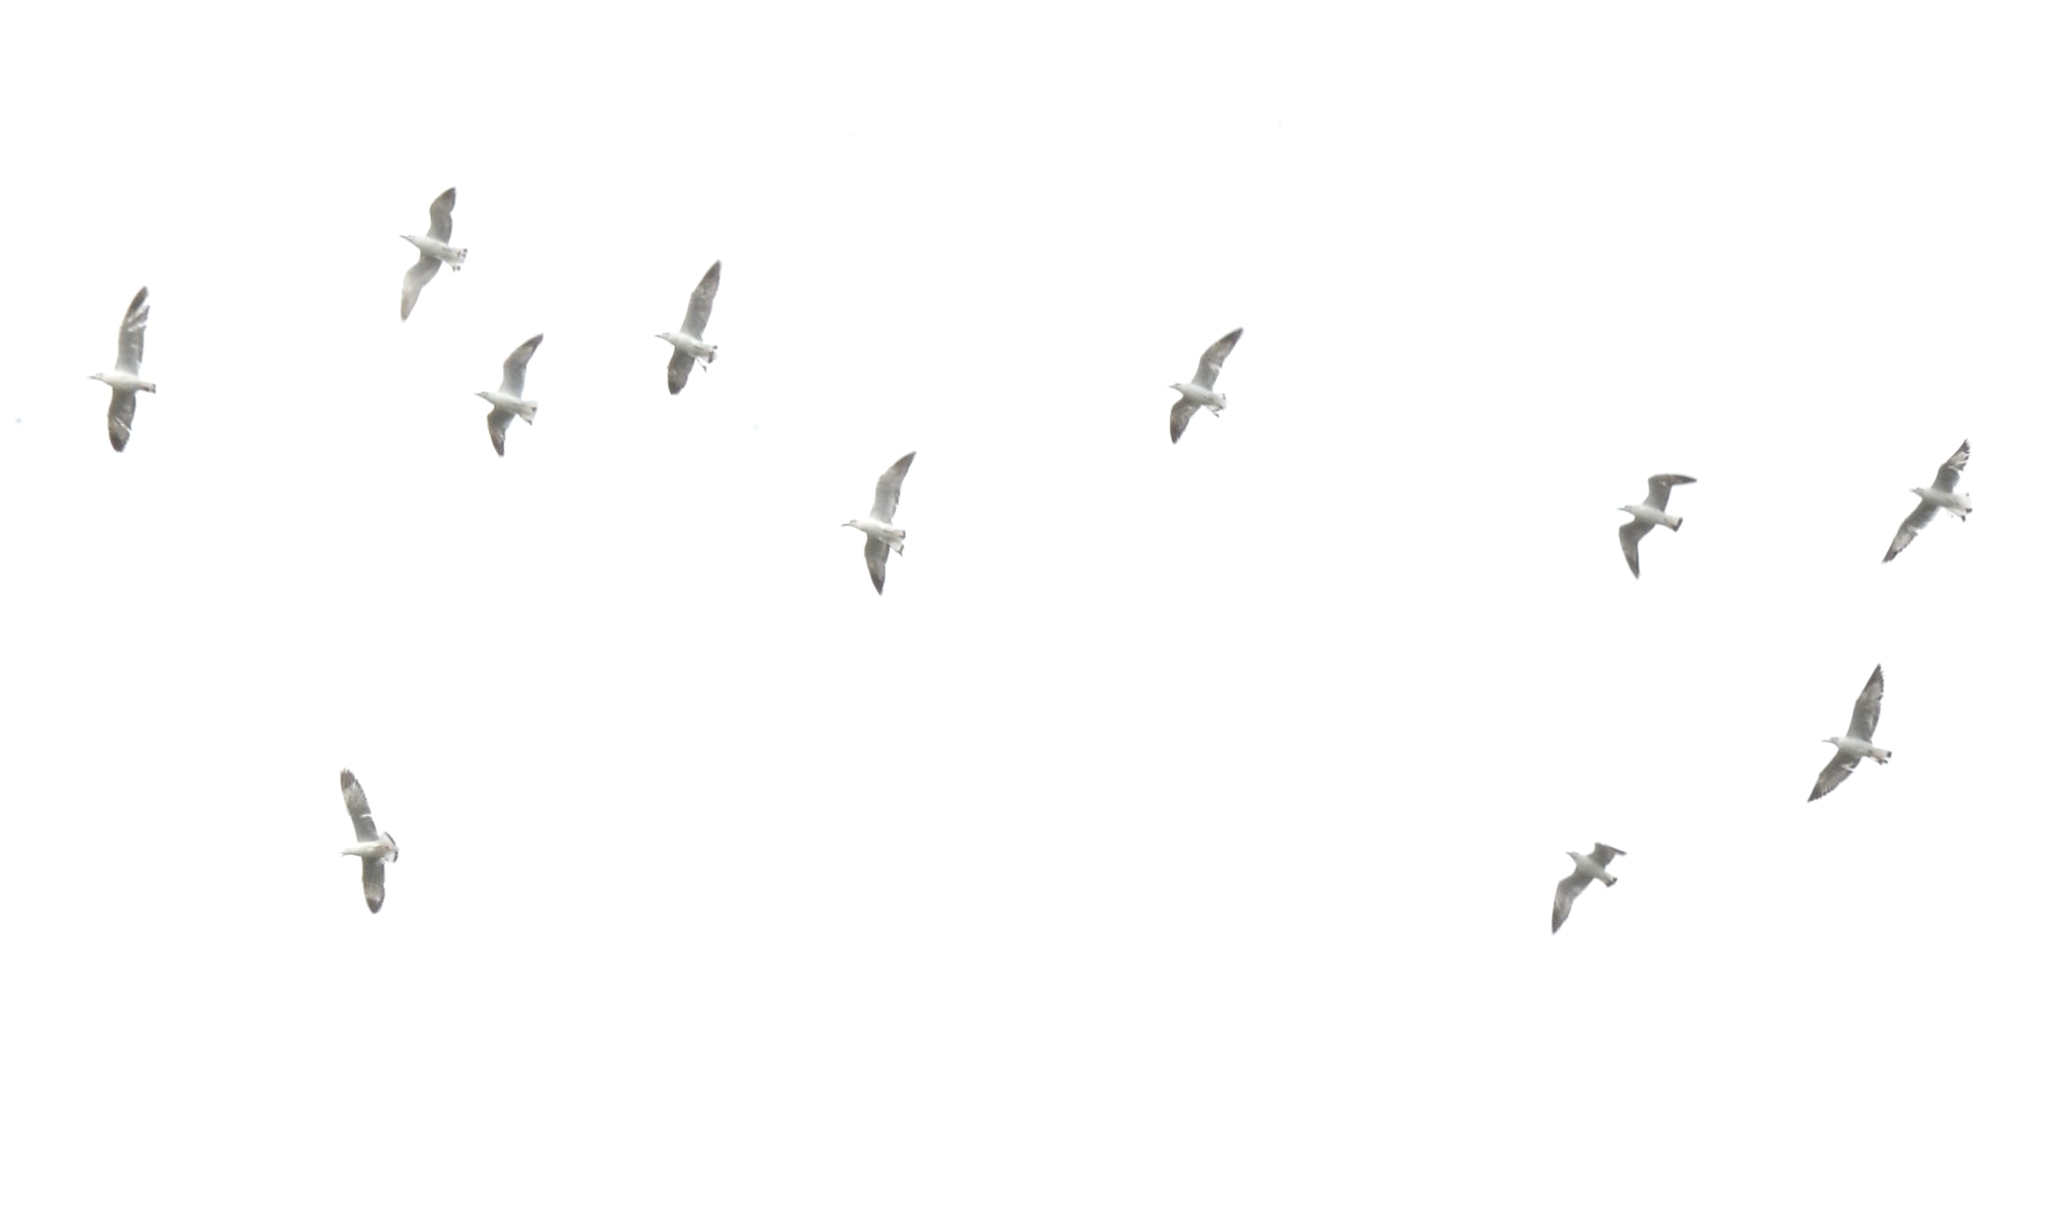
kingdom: Animalia
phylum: Chordata
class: Aves
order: Charadriiformes
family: Laridae
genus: Chroicocephalus
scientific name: Chroicocephalus brunnicephalus
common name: Brown-headed gull
